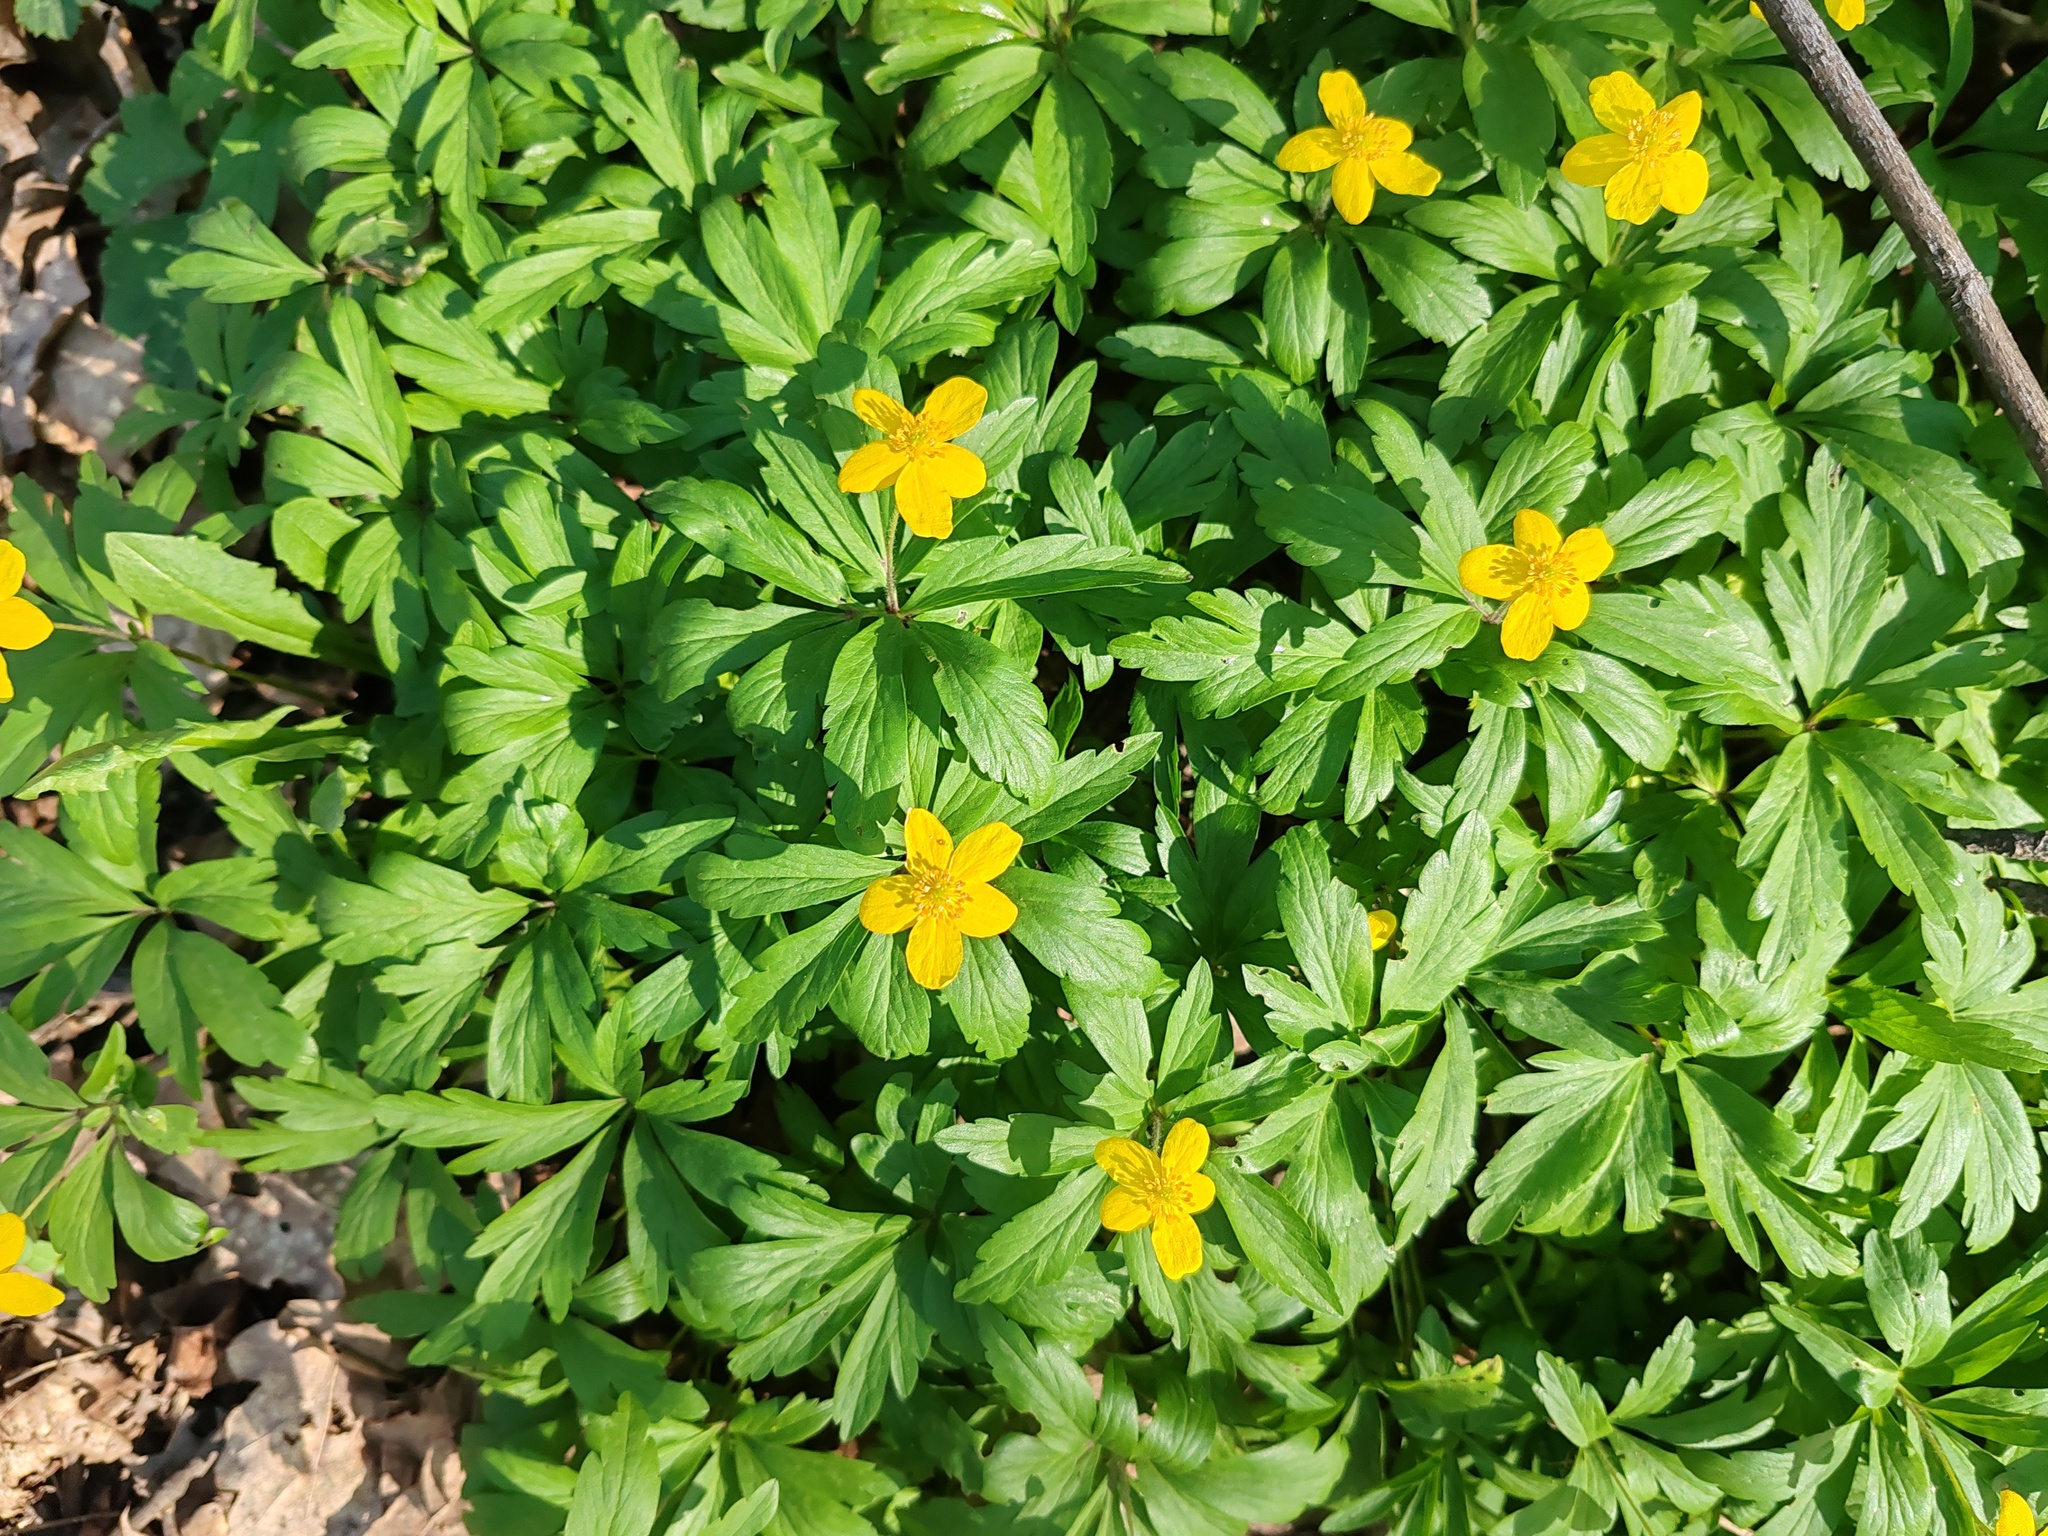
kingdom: Plantae
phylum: Tracheophyta
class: Magnoliopsida
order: Ranunculales
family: Ranunculaceae
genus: Anemone
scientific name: Anemone ranunculoides
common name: Yellow anemone
